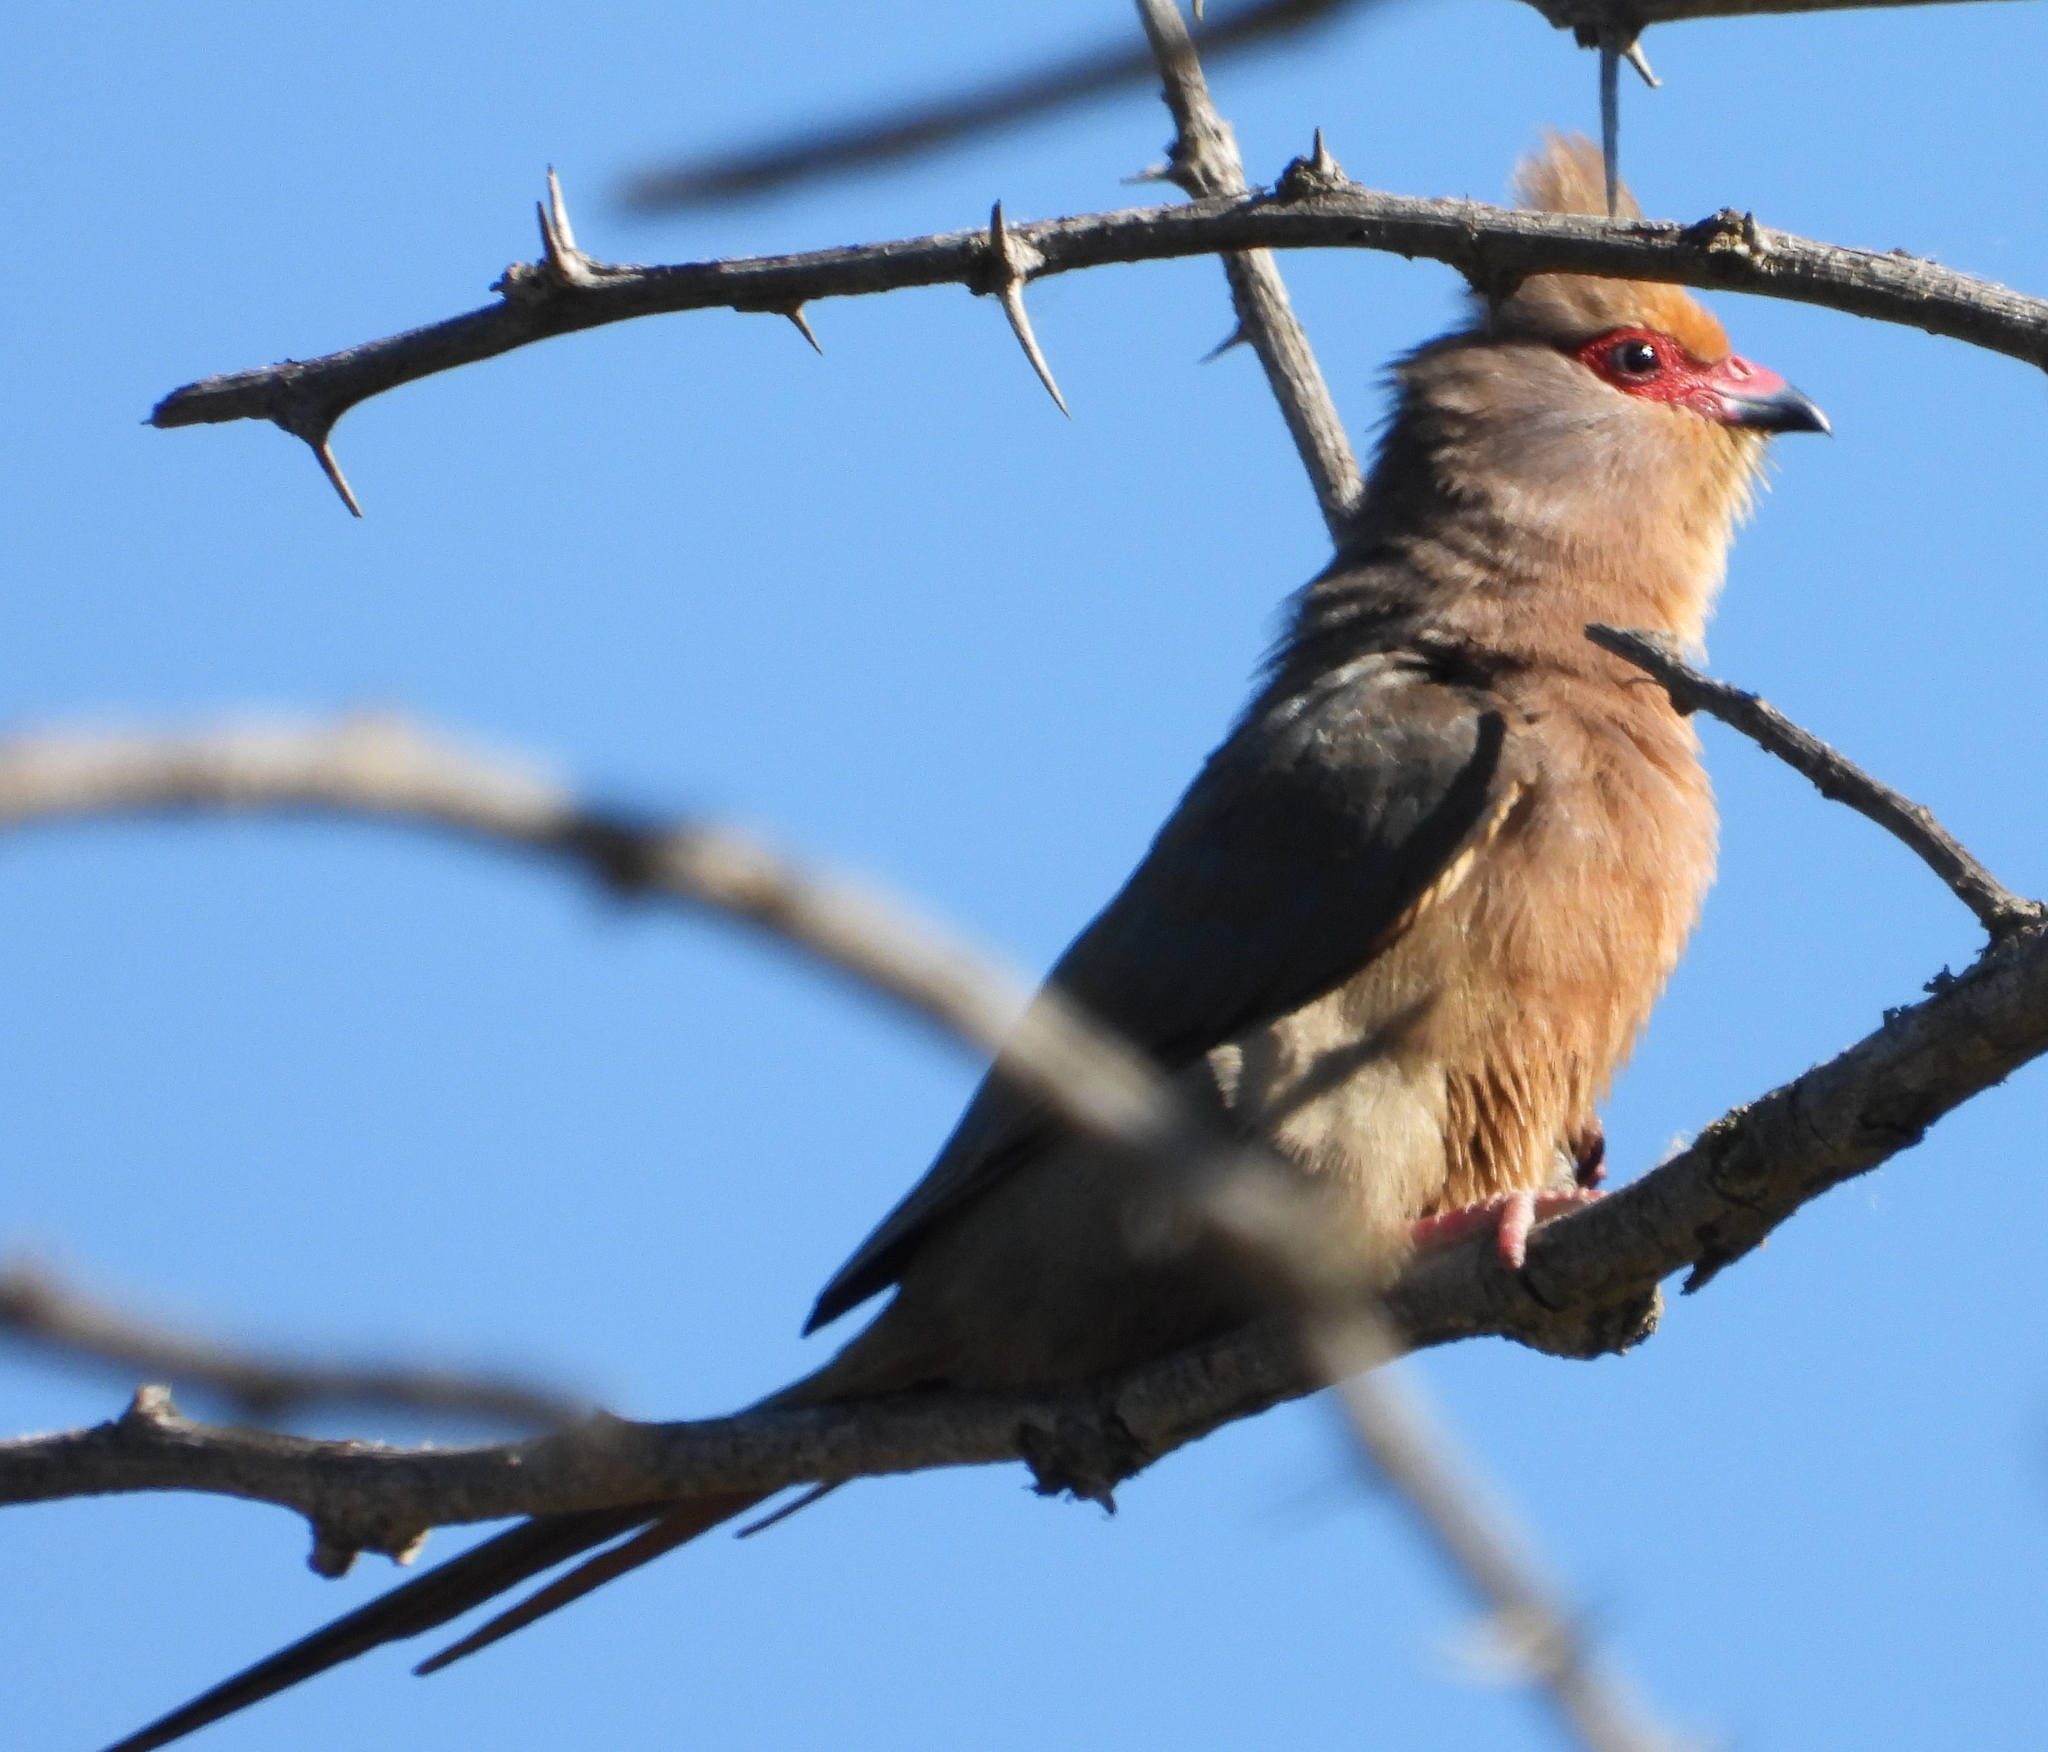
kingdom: Animalia
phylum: Chordata
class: Aves
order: Coliiformes
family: Coliidae
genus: Urocolius
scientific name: Urocolius indicus
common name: Red-faced mousebird
